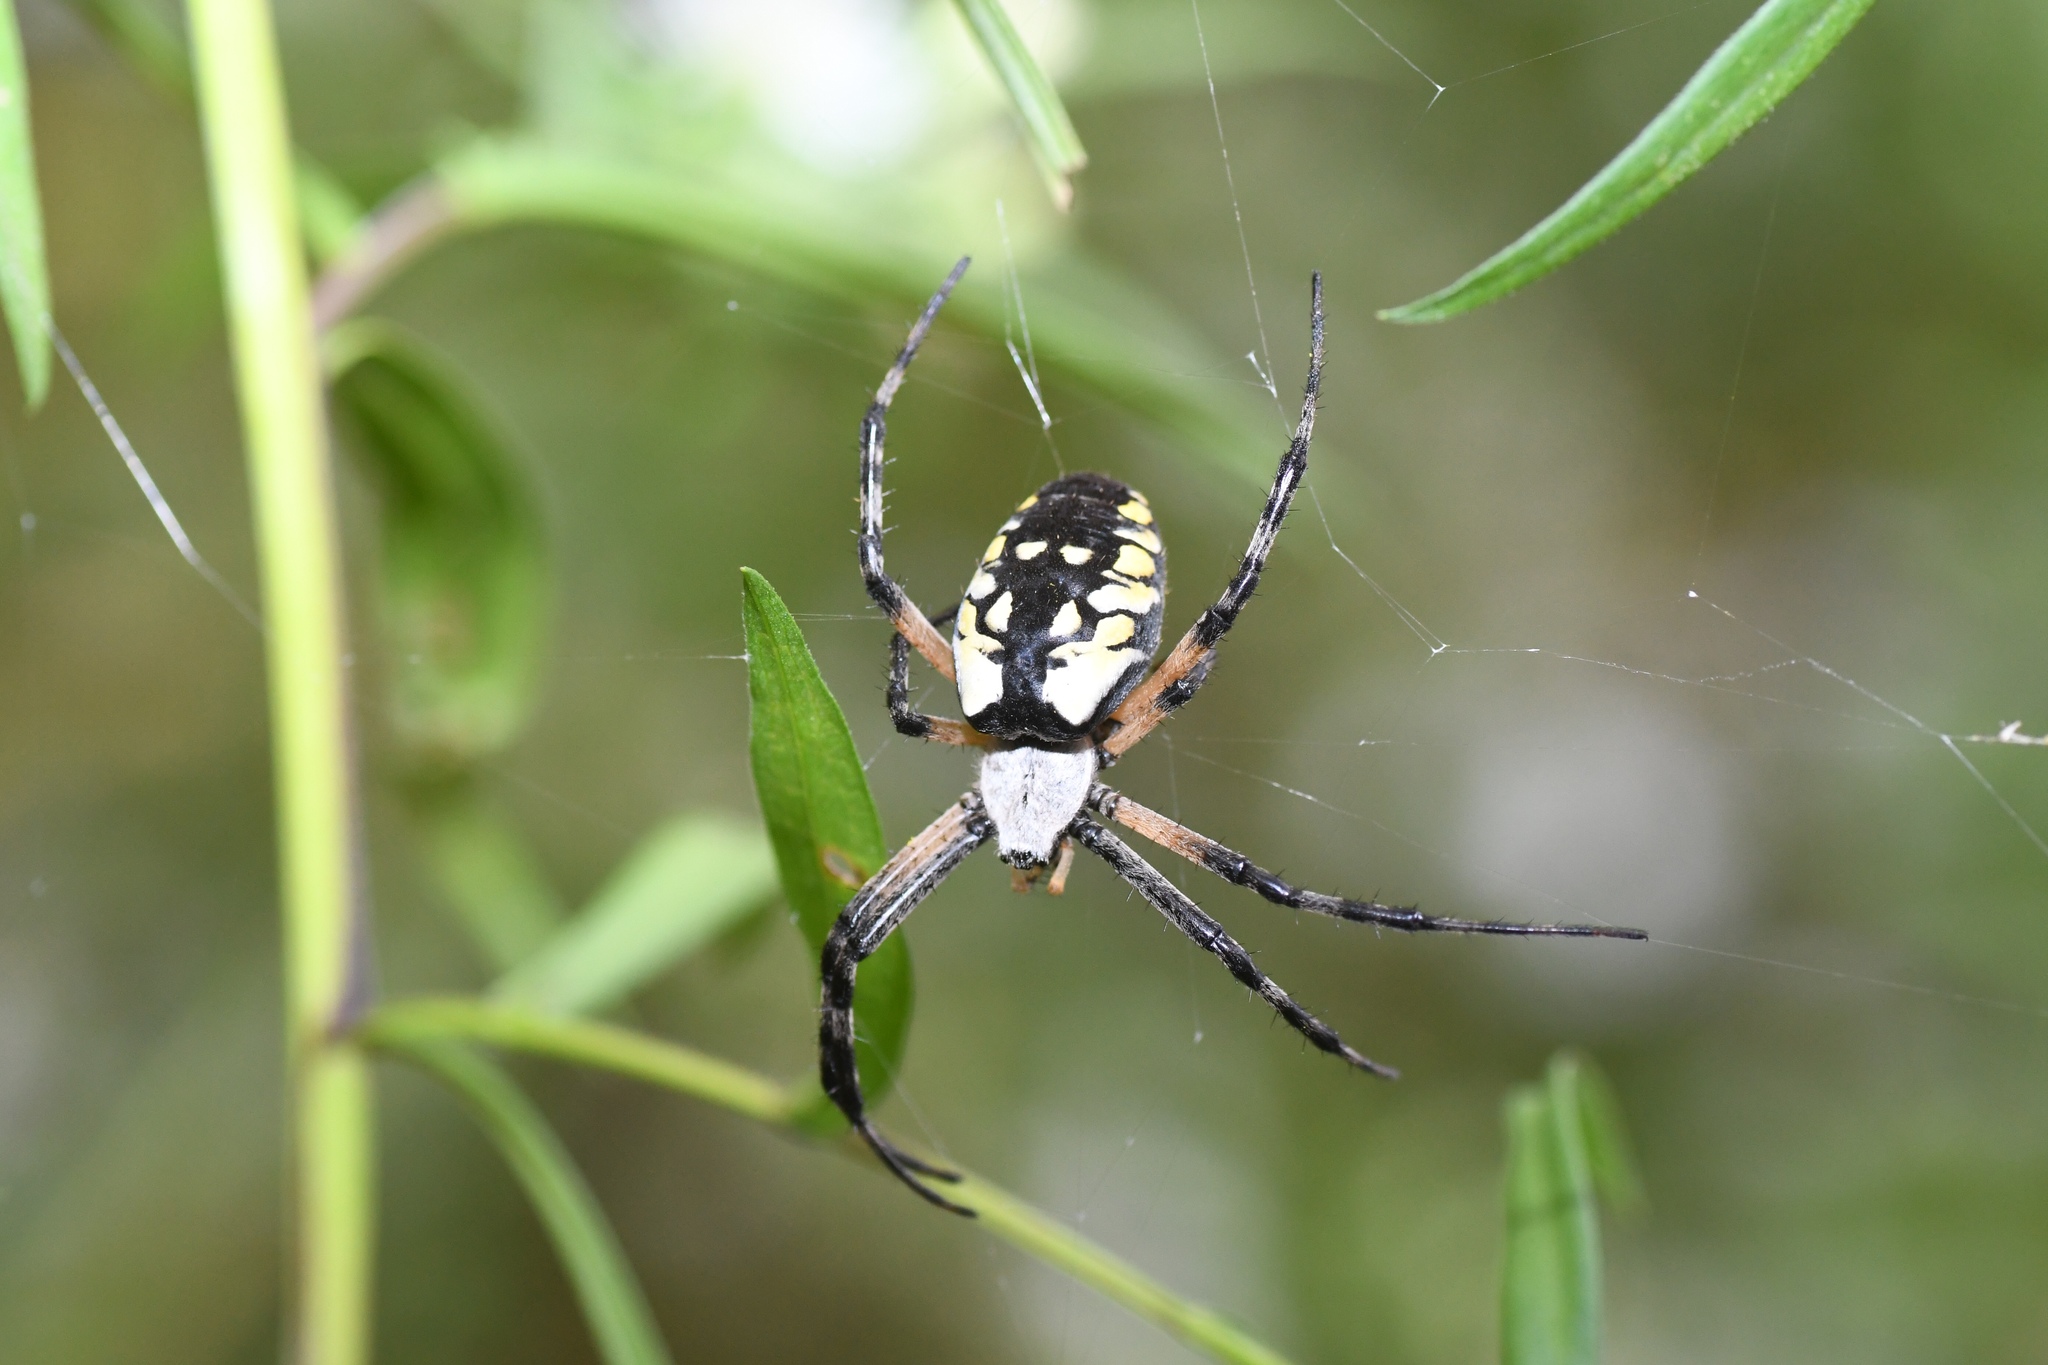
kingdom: Animalia
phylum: Arthropoda
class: Arachnida
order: Araneae
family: Araneidae
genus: Argiope
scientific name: Argiope aurantia
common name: Orb weavers
